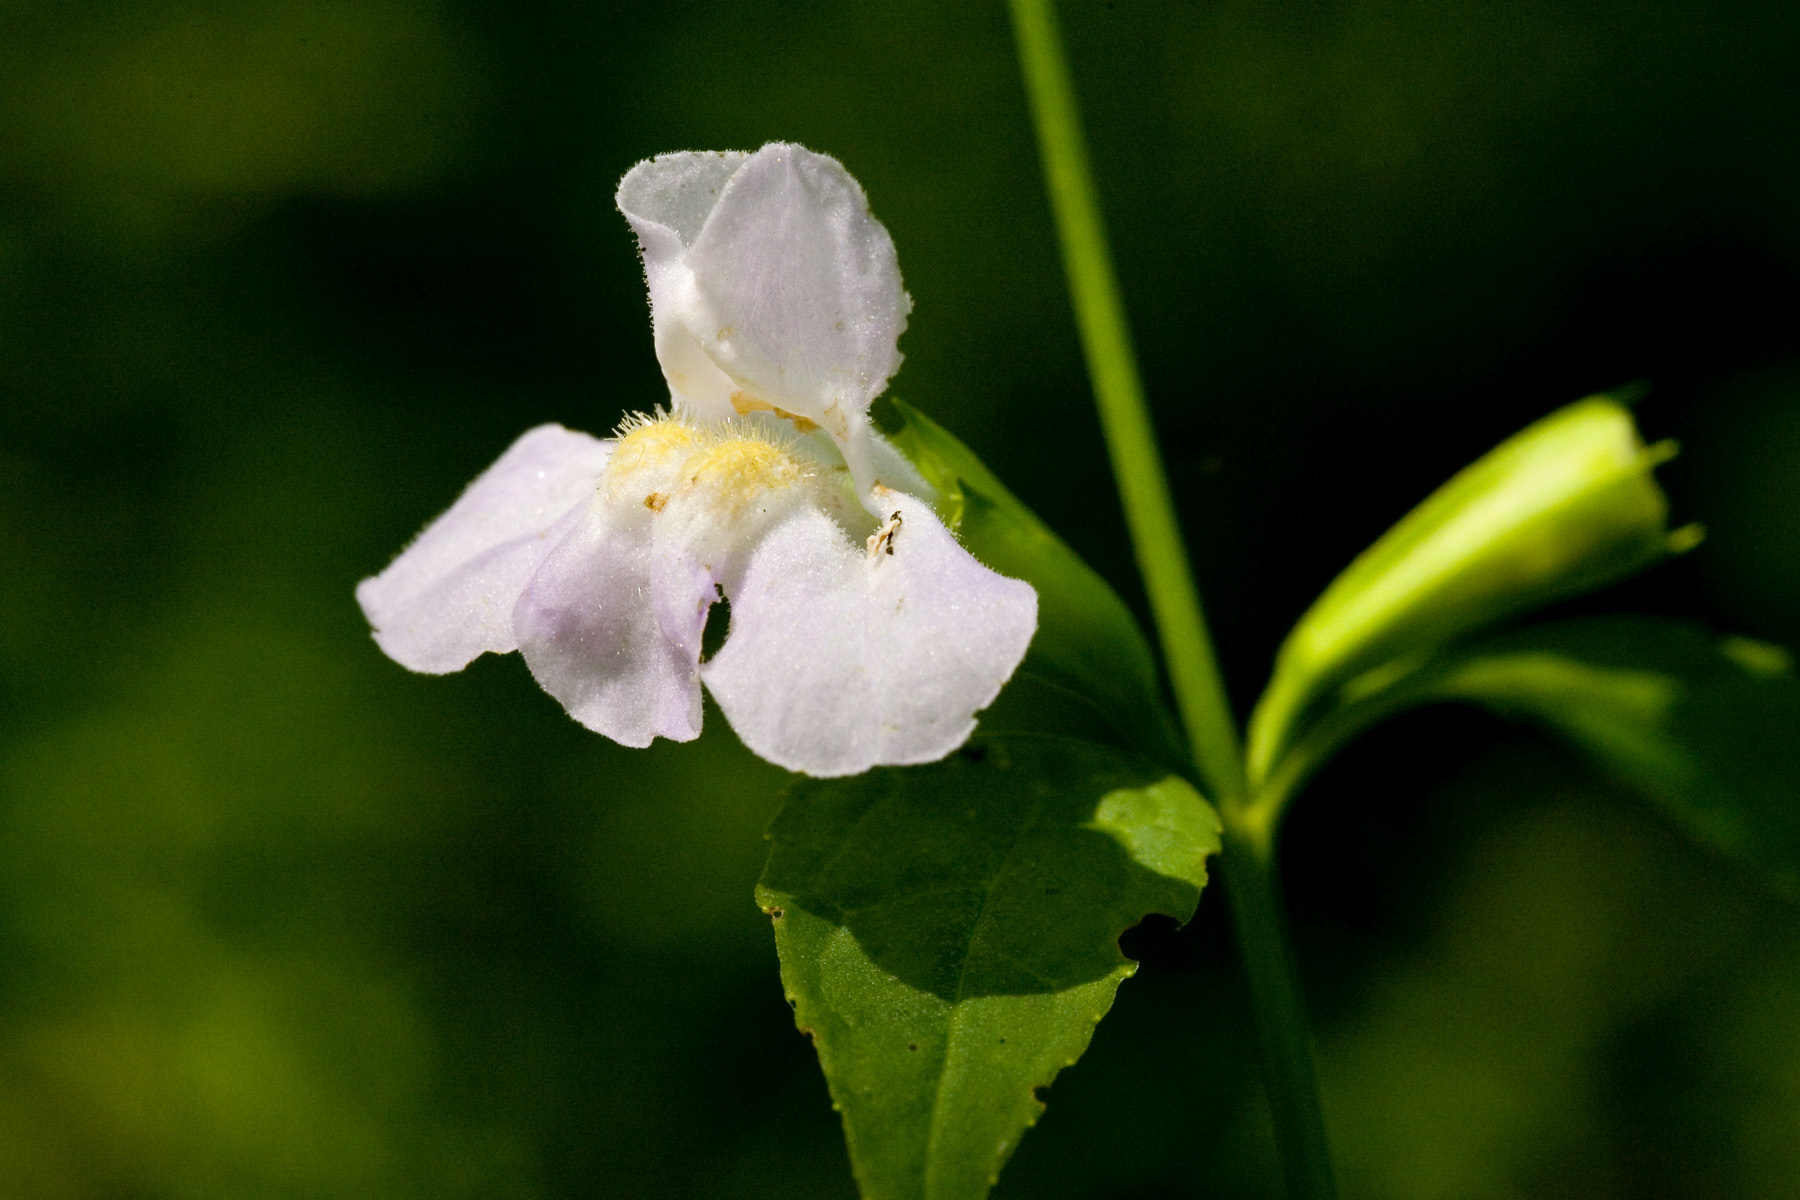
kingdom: Plantae
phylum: Tracheophyta
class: Magnoliopsida
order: Lamiales
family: Phrymaceae
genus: Mimulus
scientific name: Mimulus alatus
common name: Sharp-wing monkey-flower
